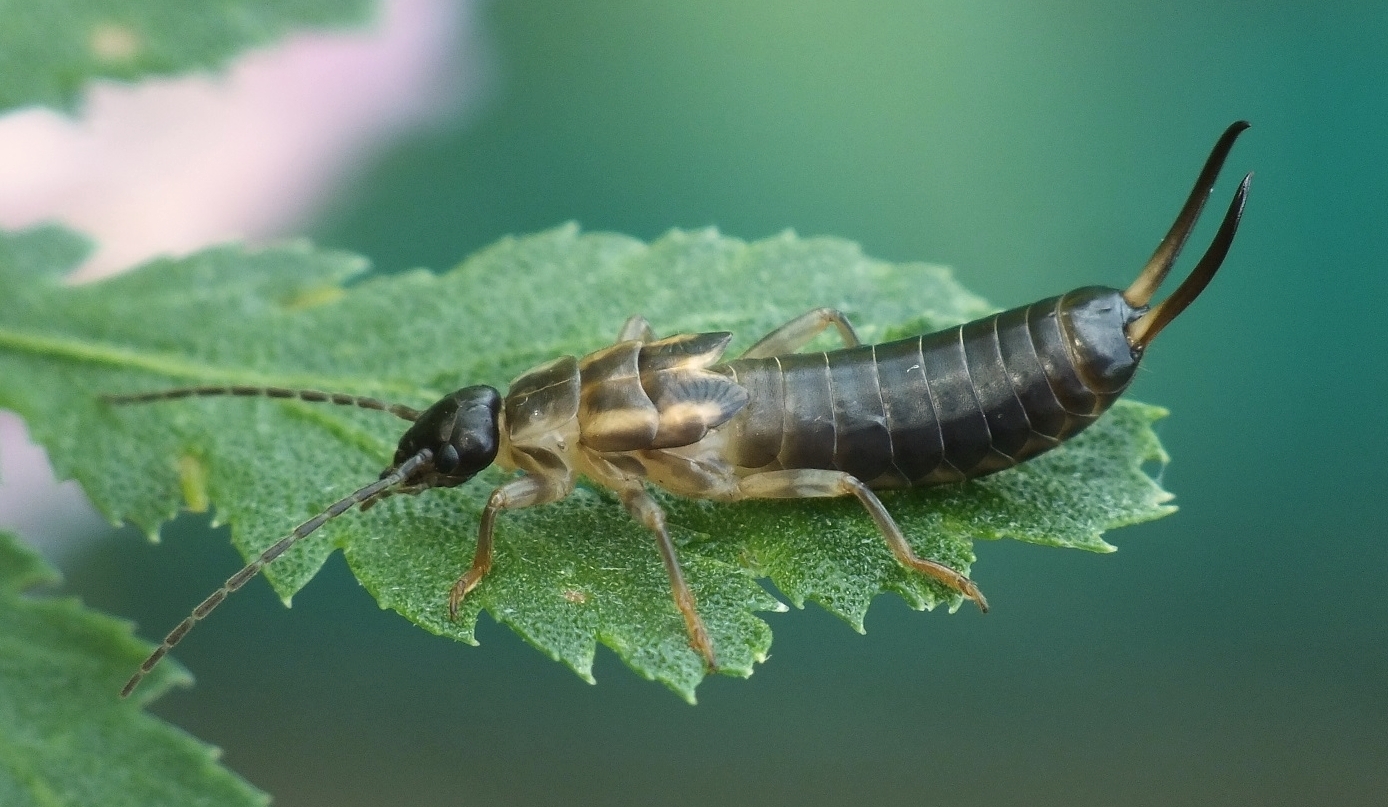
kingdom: Animalia
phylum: Arthropoda
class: Insecta
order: Dermaptera
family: Forficulidae
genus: Forficula
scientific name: Forficula
